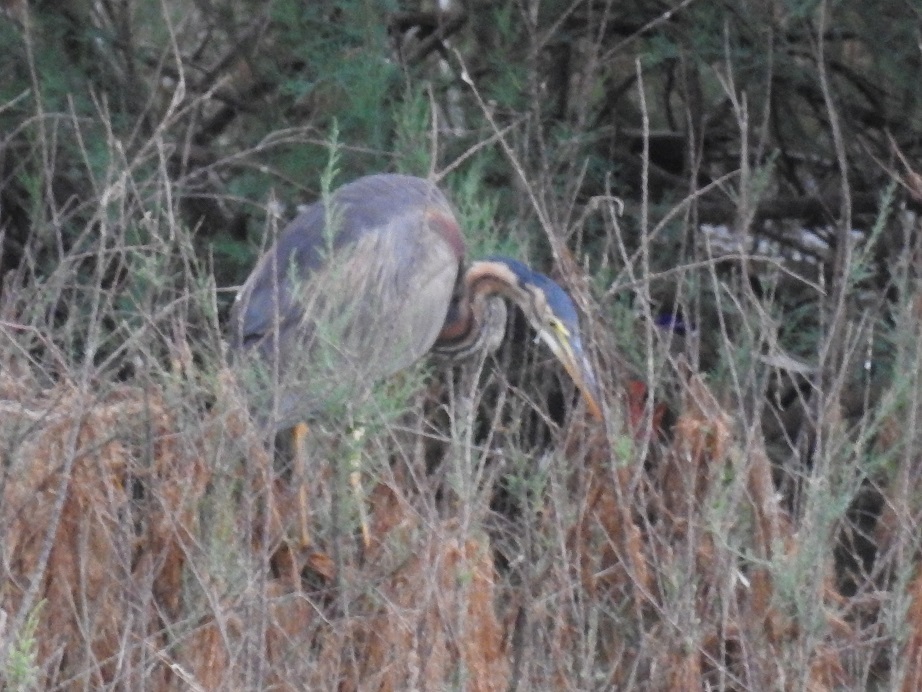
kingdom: Animalia
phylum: Chordata
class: Aves
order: Pelecaniformes
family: Ardeidae
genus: Ardea
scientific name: Ardea purpurea
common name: Purple heron
